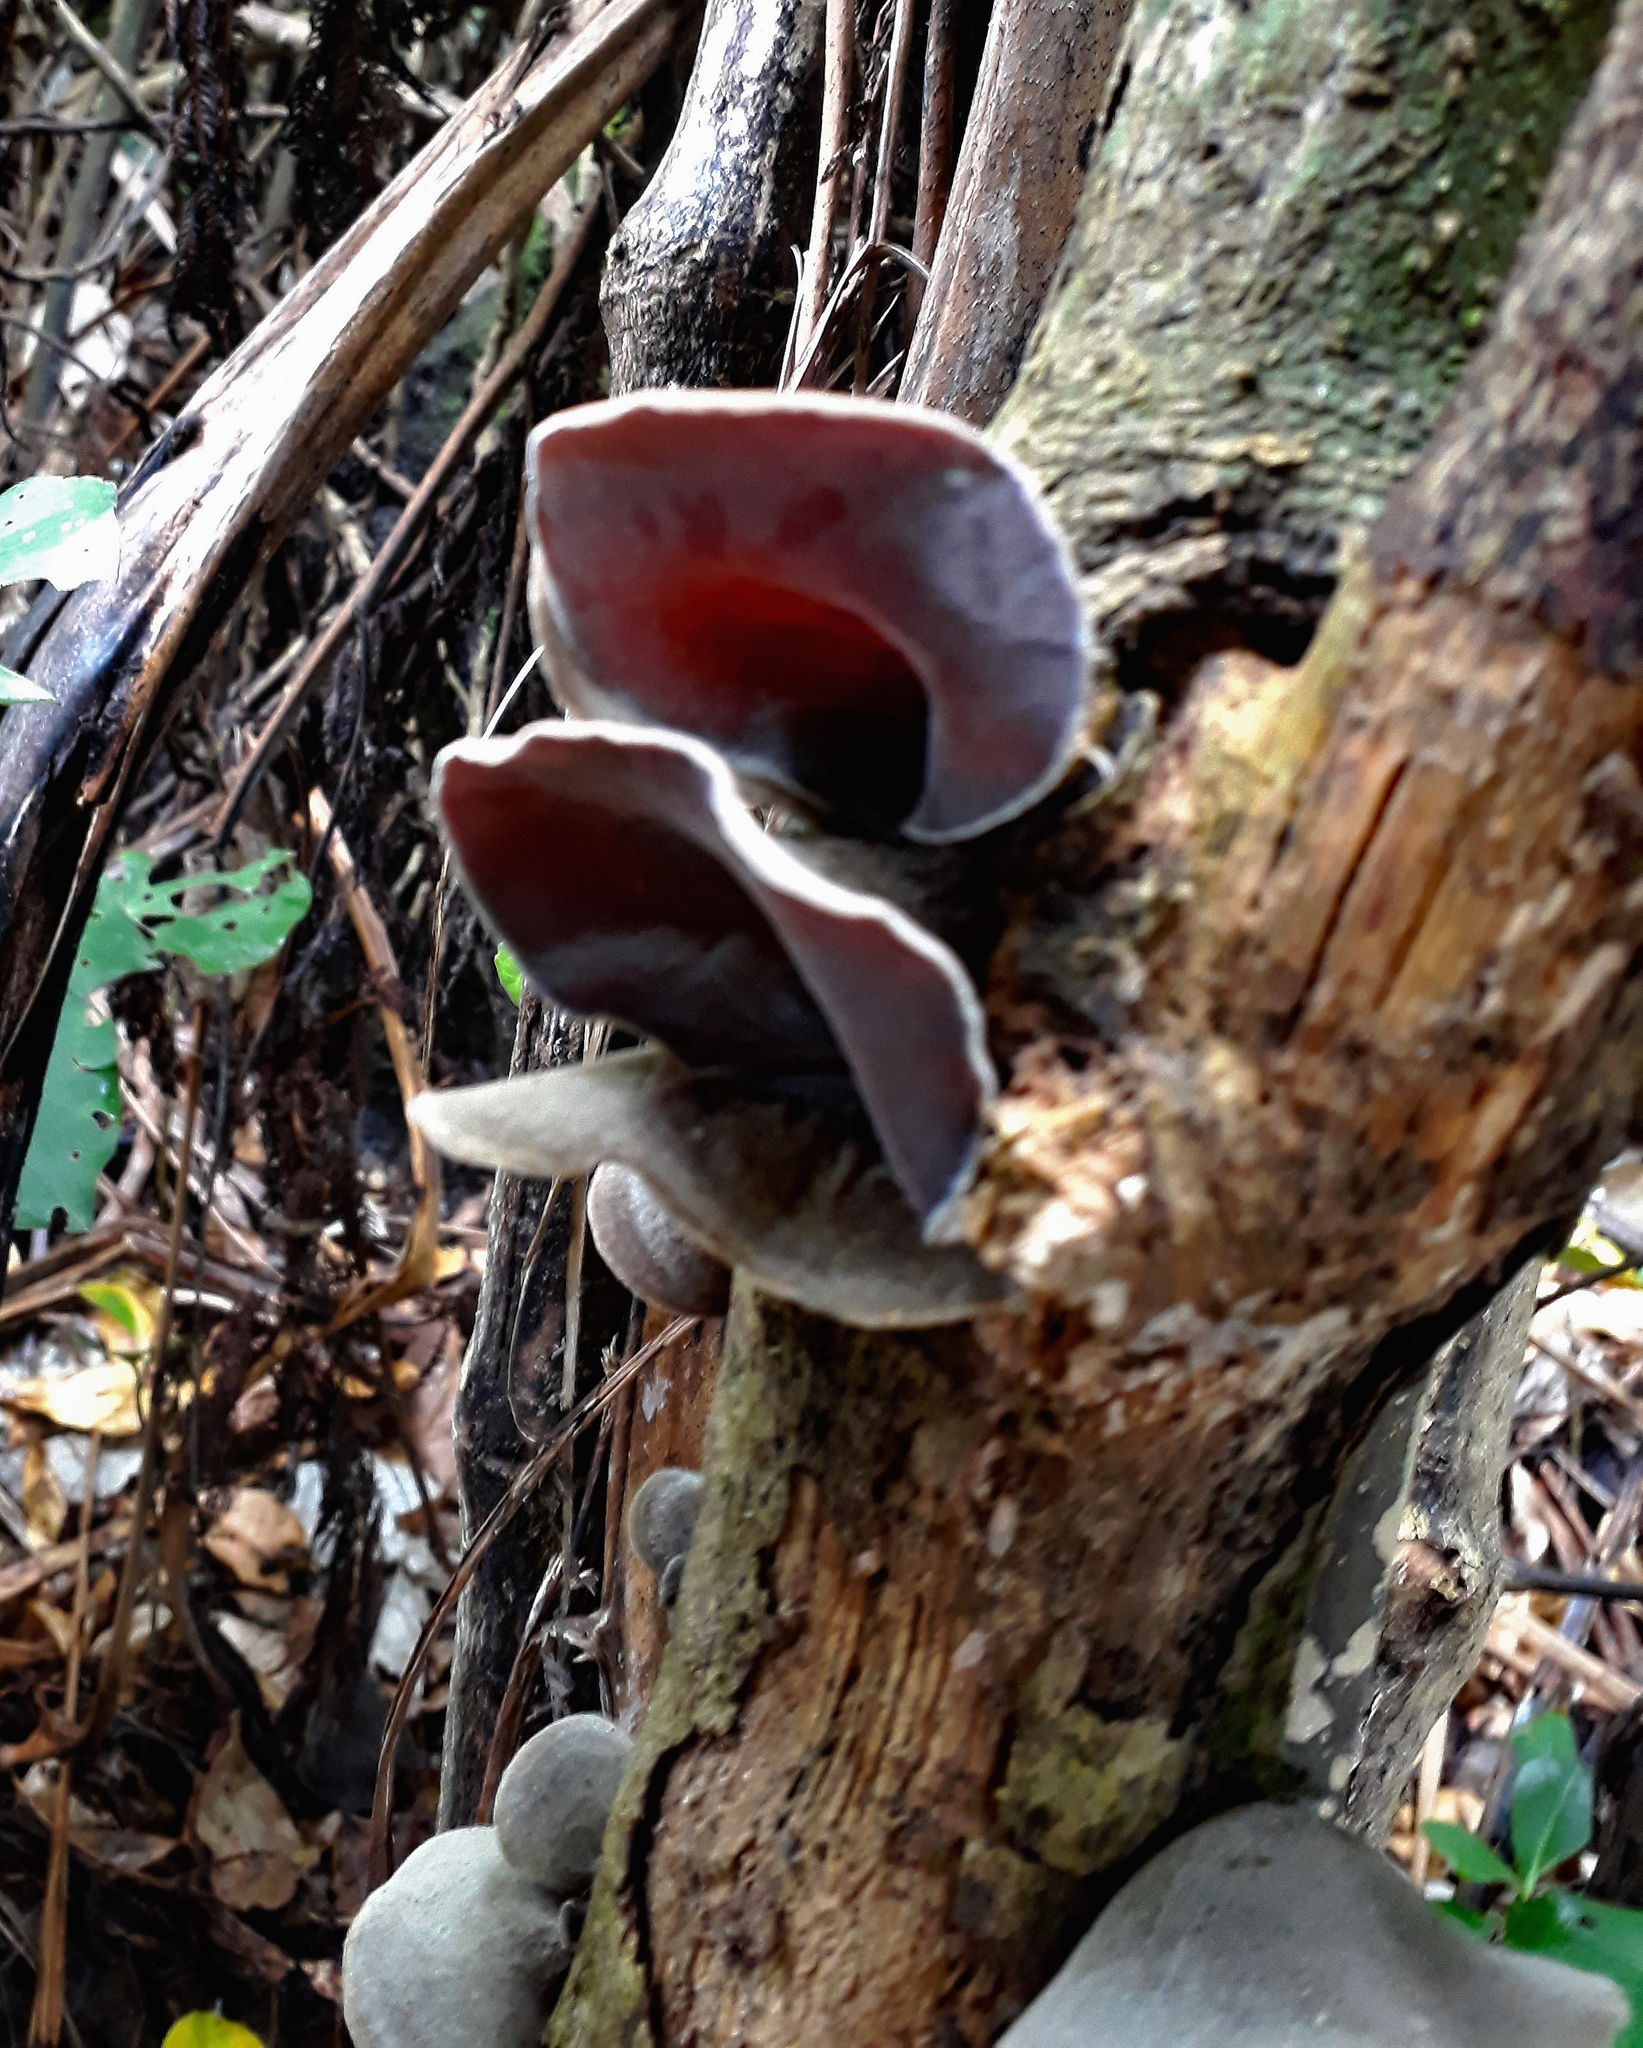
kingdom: Fungi
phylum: Basidiomycota
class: Agaricomycetes
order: Auriculariales
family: Auriculariaceae
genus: Auricularia
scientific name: Auricularia cornea
